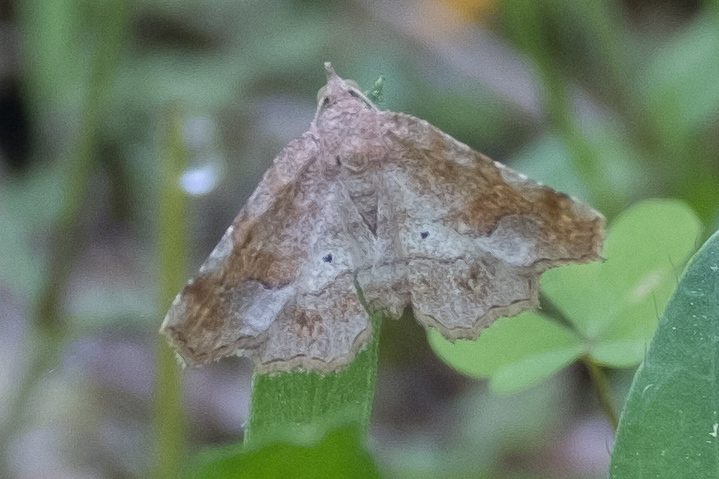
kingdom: Animalia
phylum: Arthropoda
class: Insecta
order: Lepidoptera
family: Erebidae
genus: Pangrapta
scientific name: Pangrapta decoralis
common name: Decorated owlet
